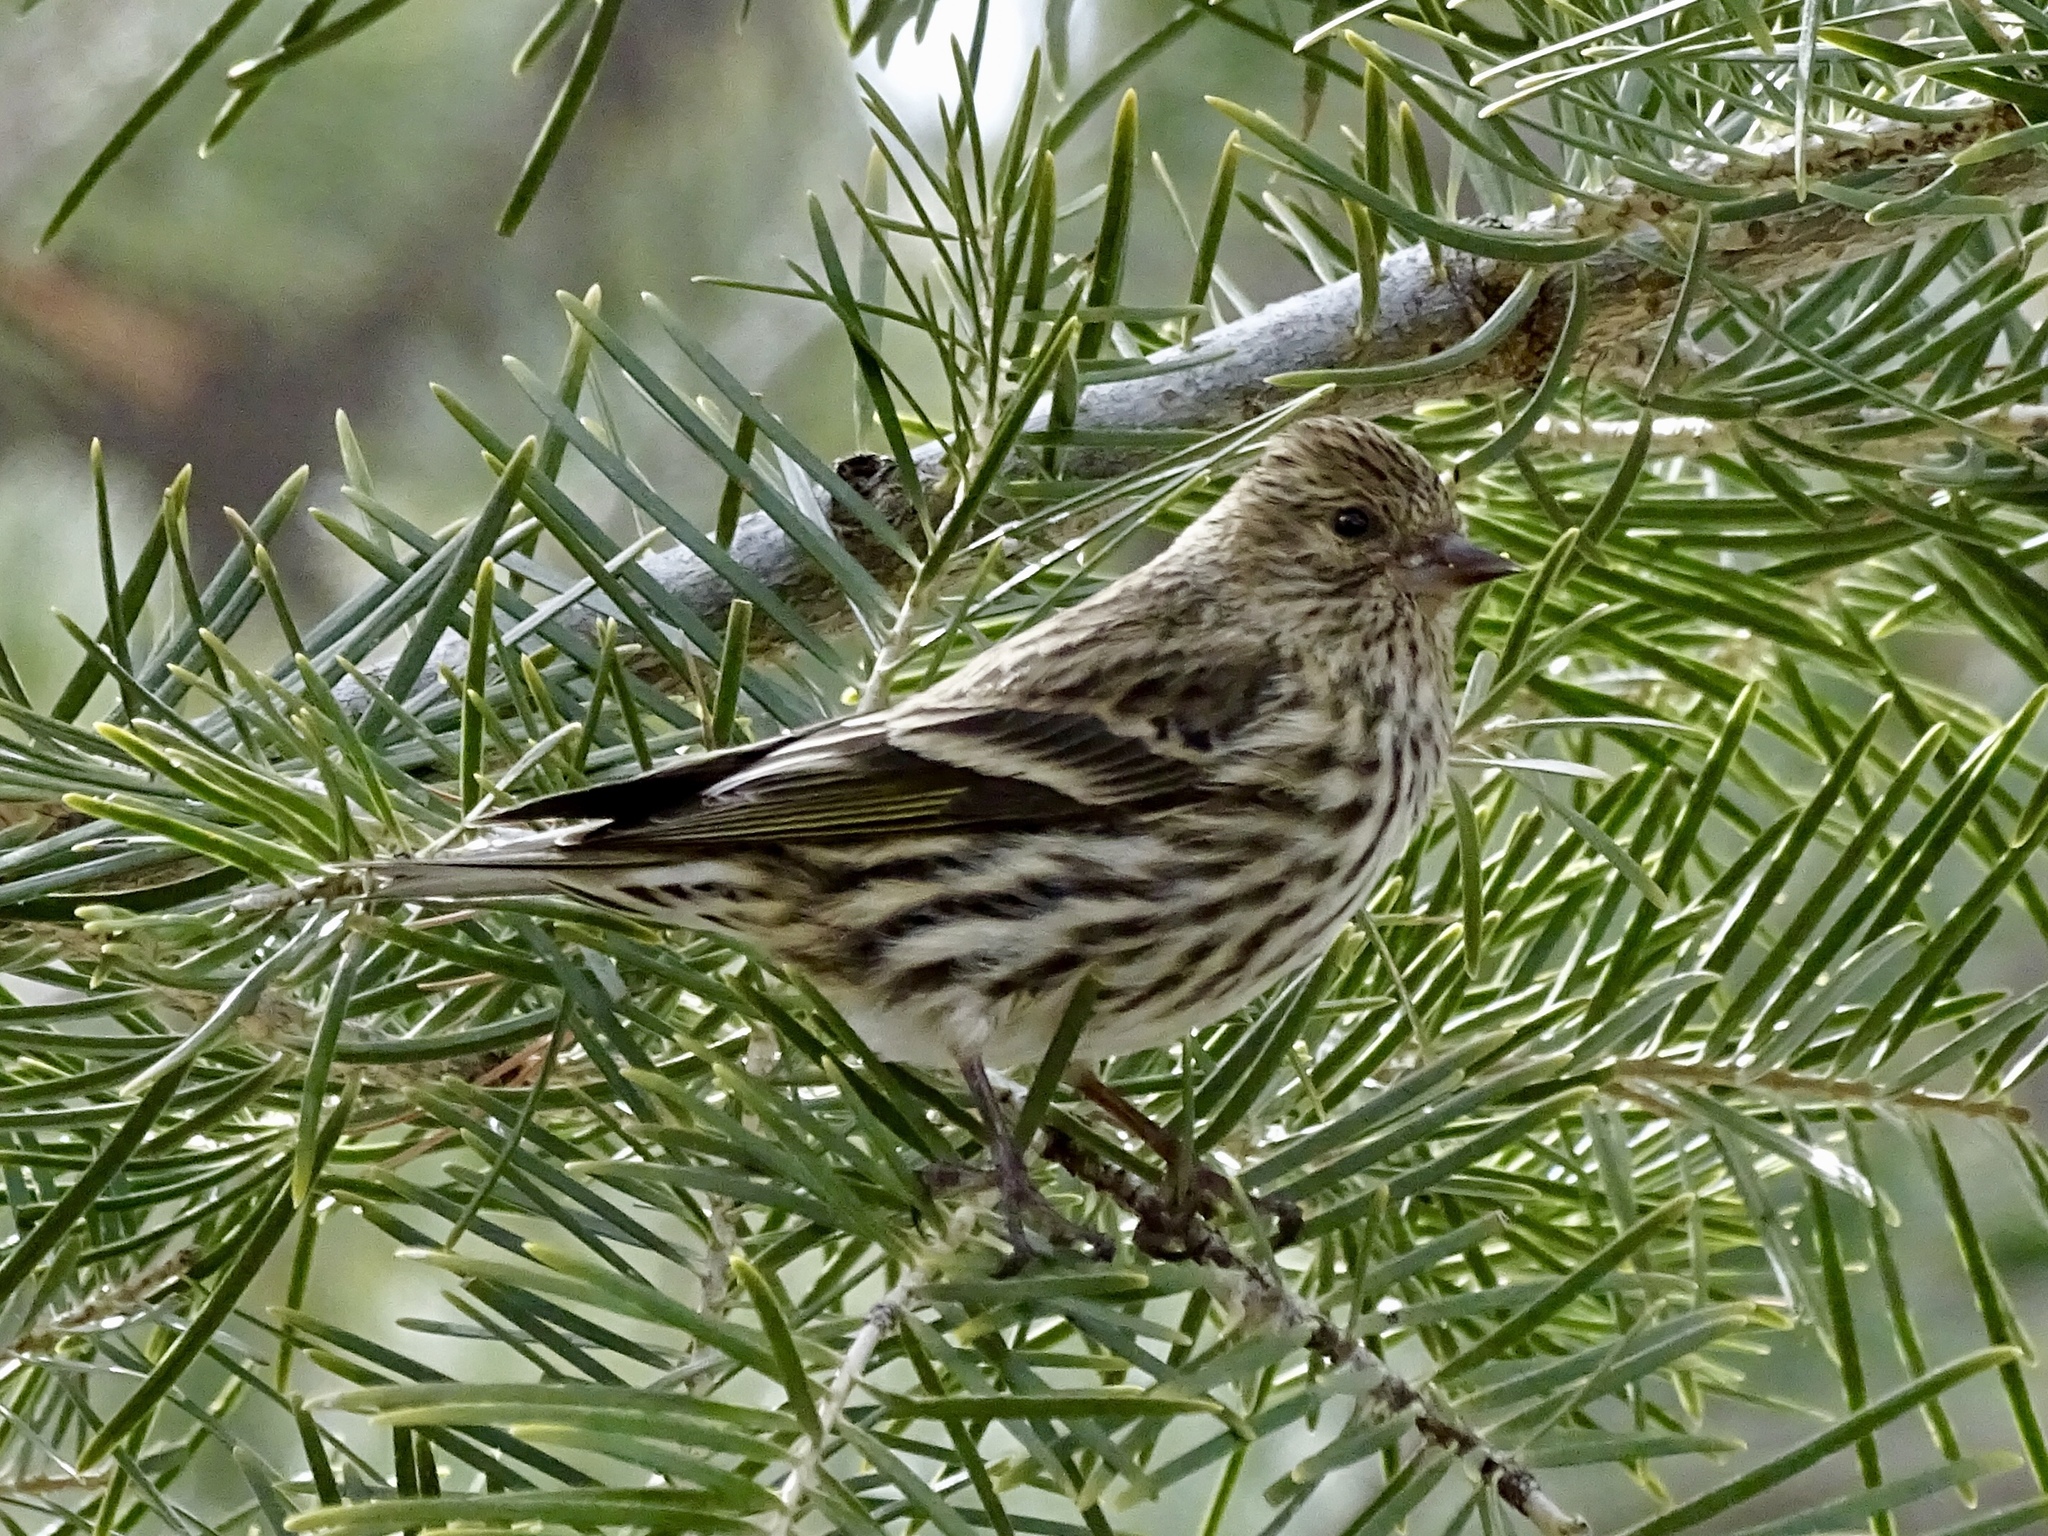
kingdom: Animalia
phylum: Chordata
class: Aves
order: Passeriformes
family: Fringillidae
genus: Spinus
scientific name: Spinus pinus
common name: Pine siskin
